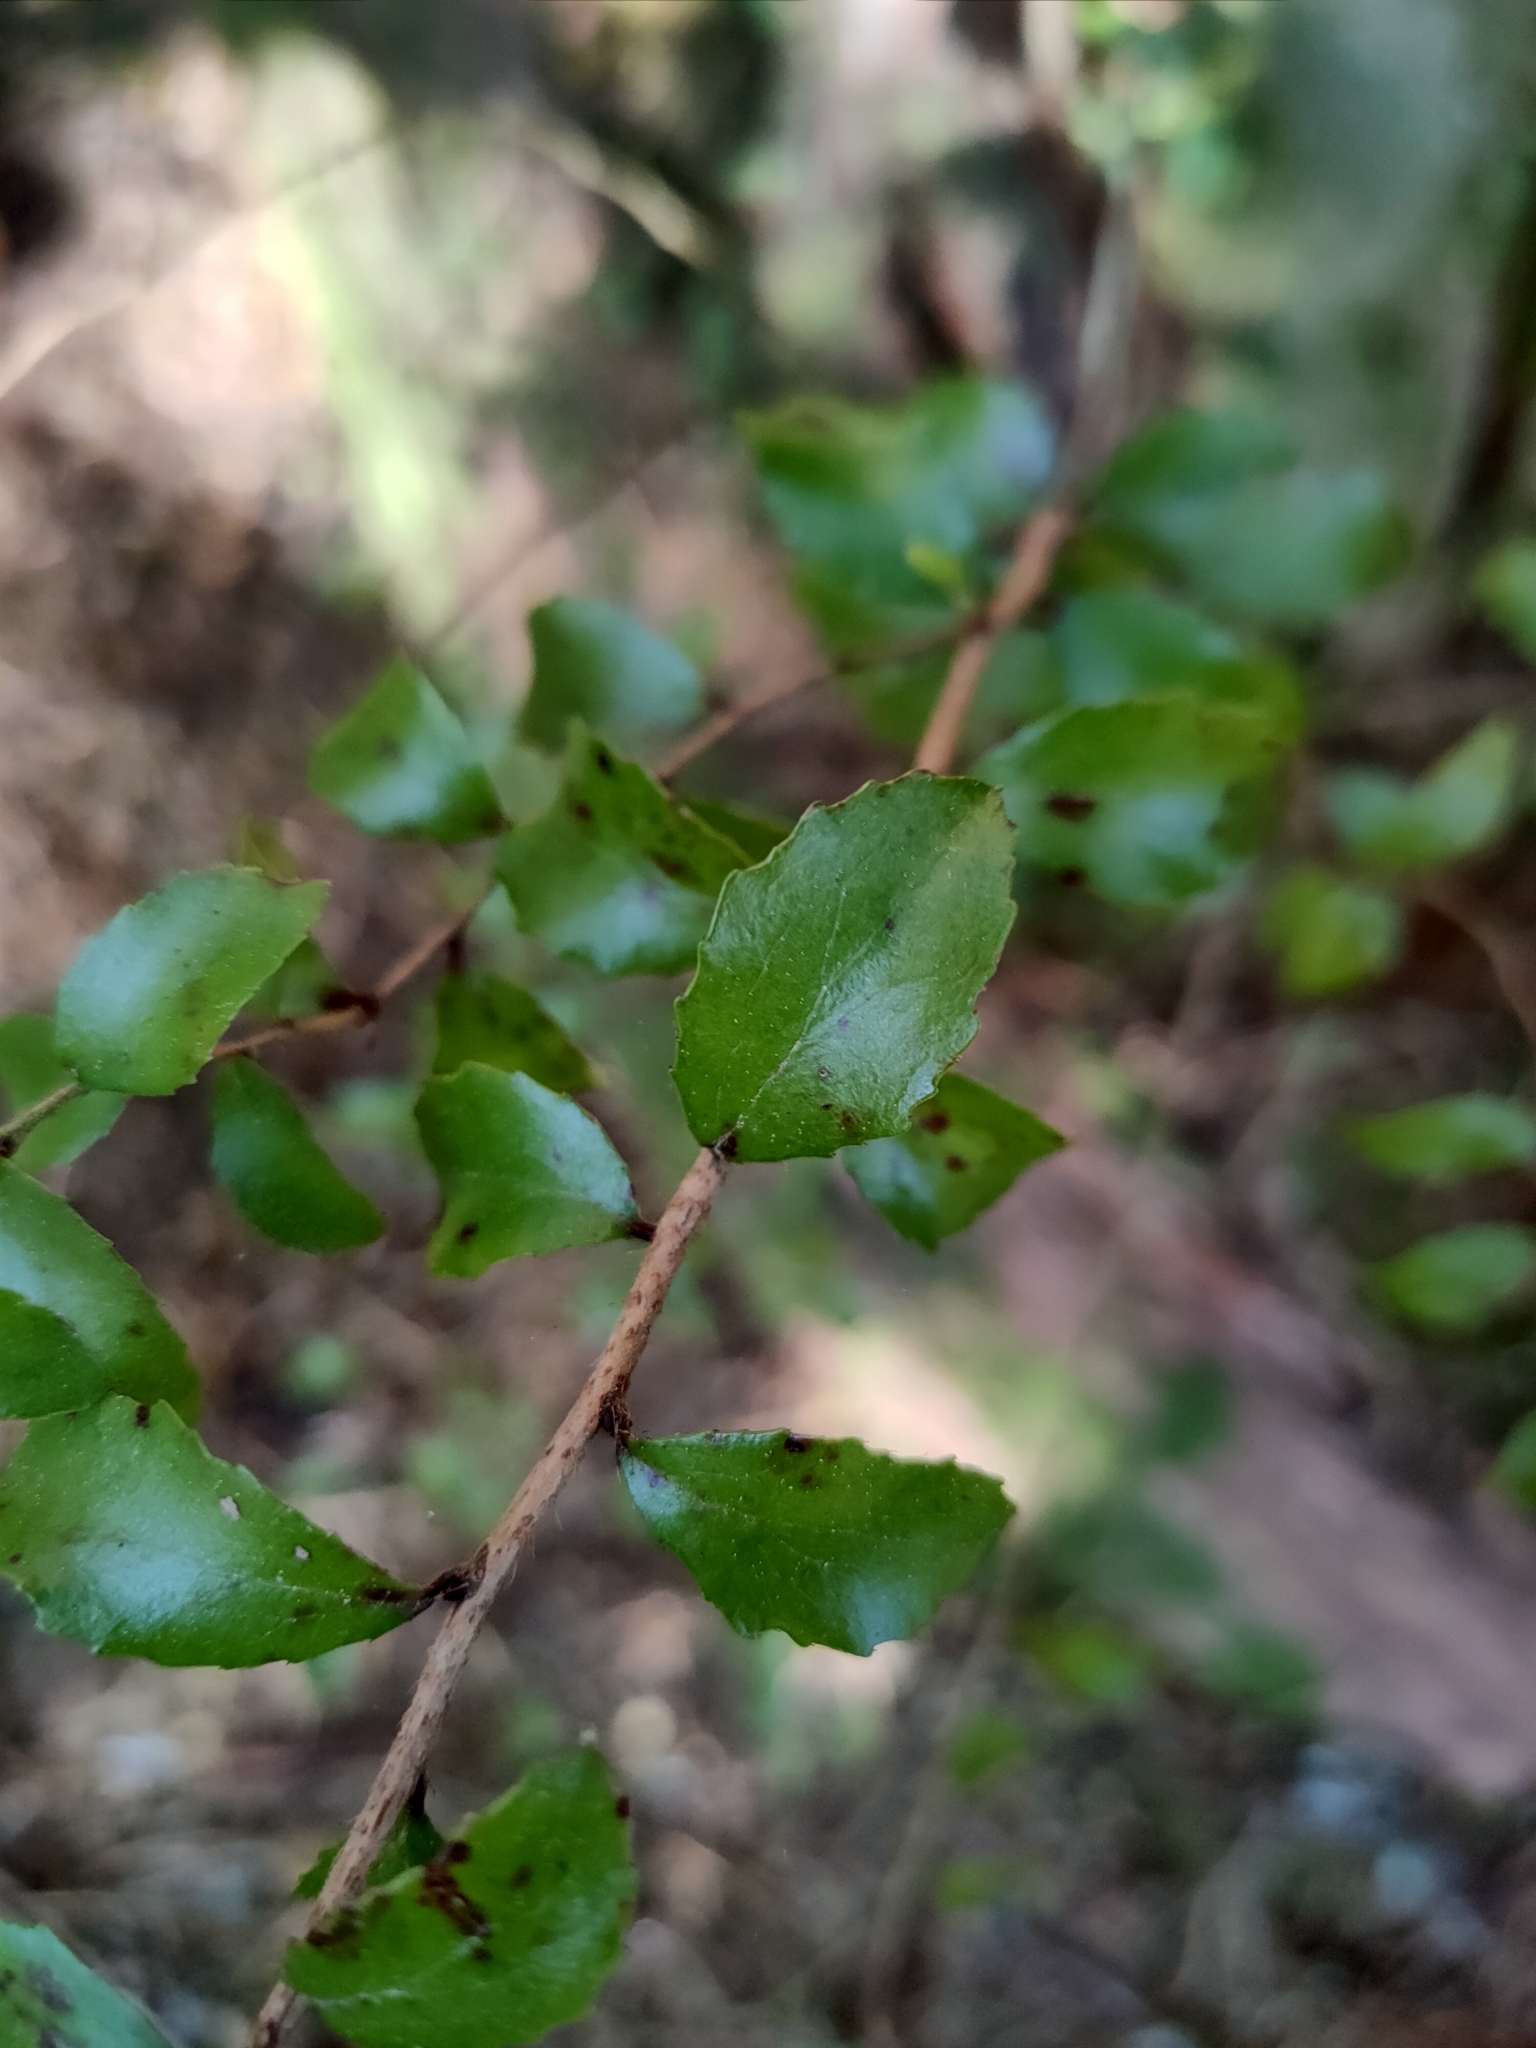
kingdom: Plantae
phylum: Tracheophyta
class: Magnoliopsida
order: Ericales
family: Ericaceae
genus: Gaultheria
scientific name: Gaultheria antipoda
